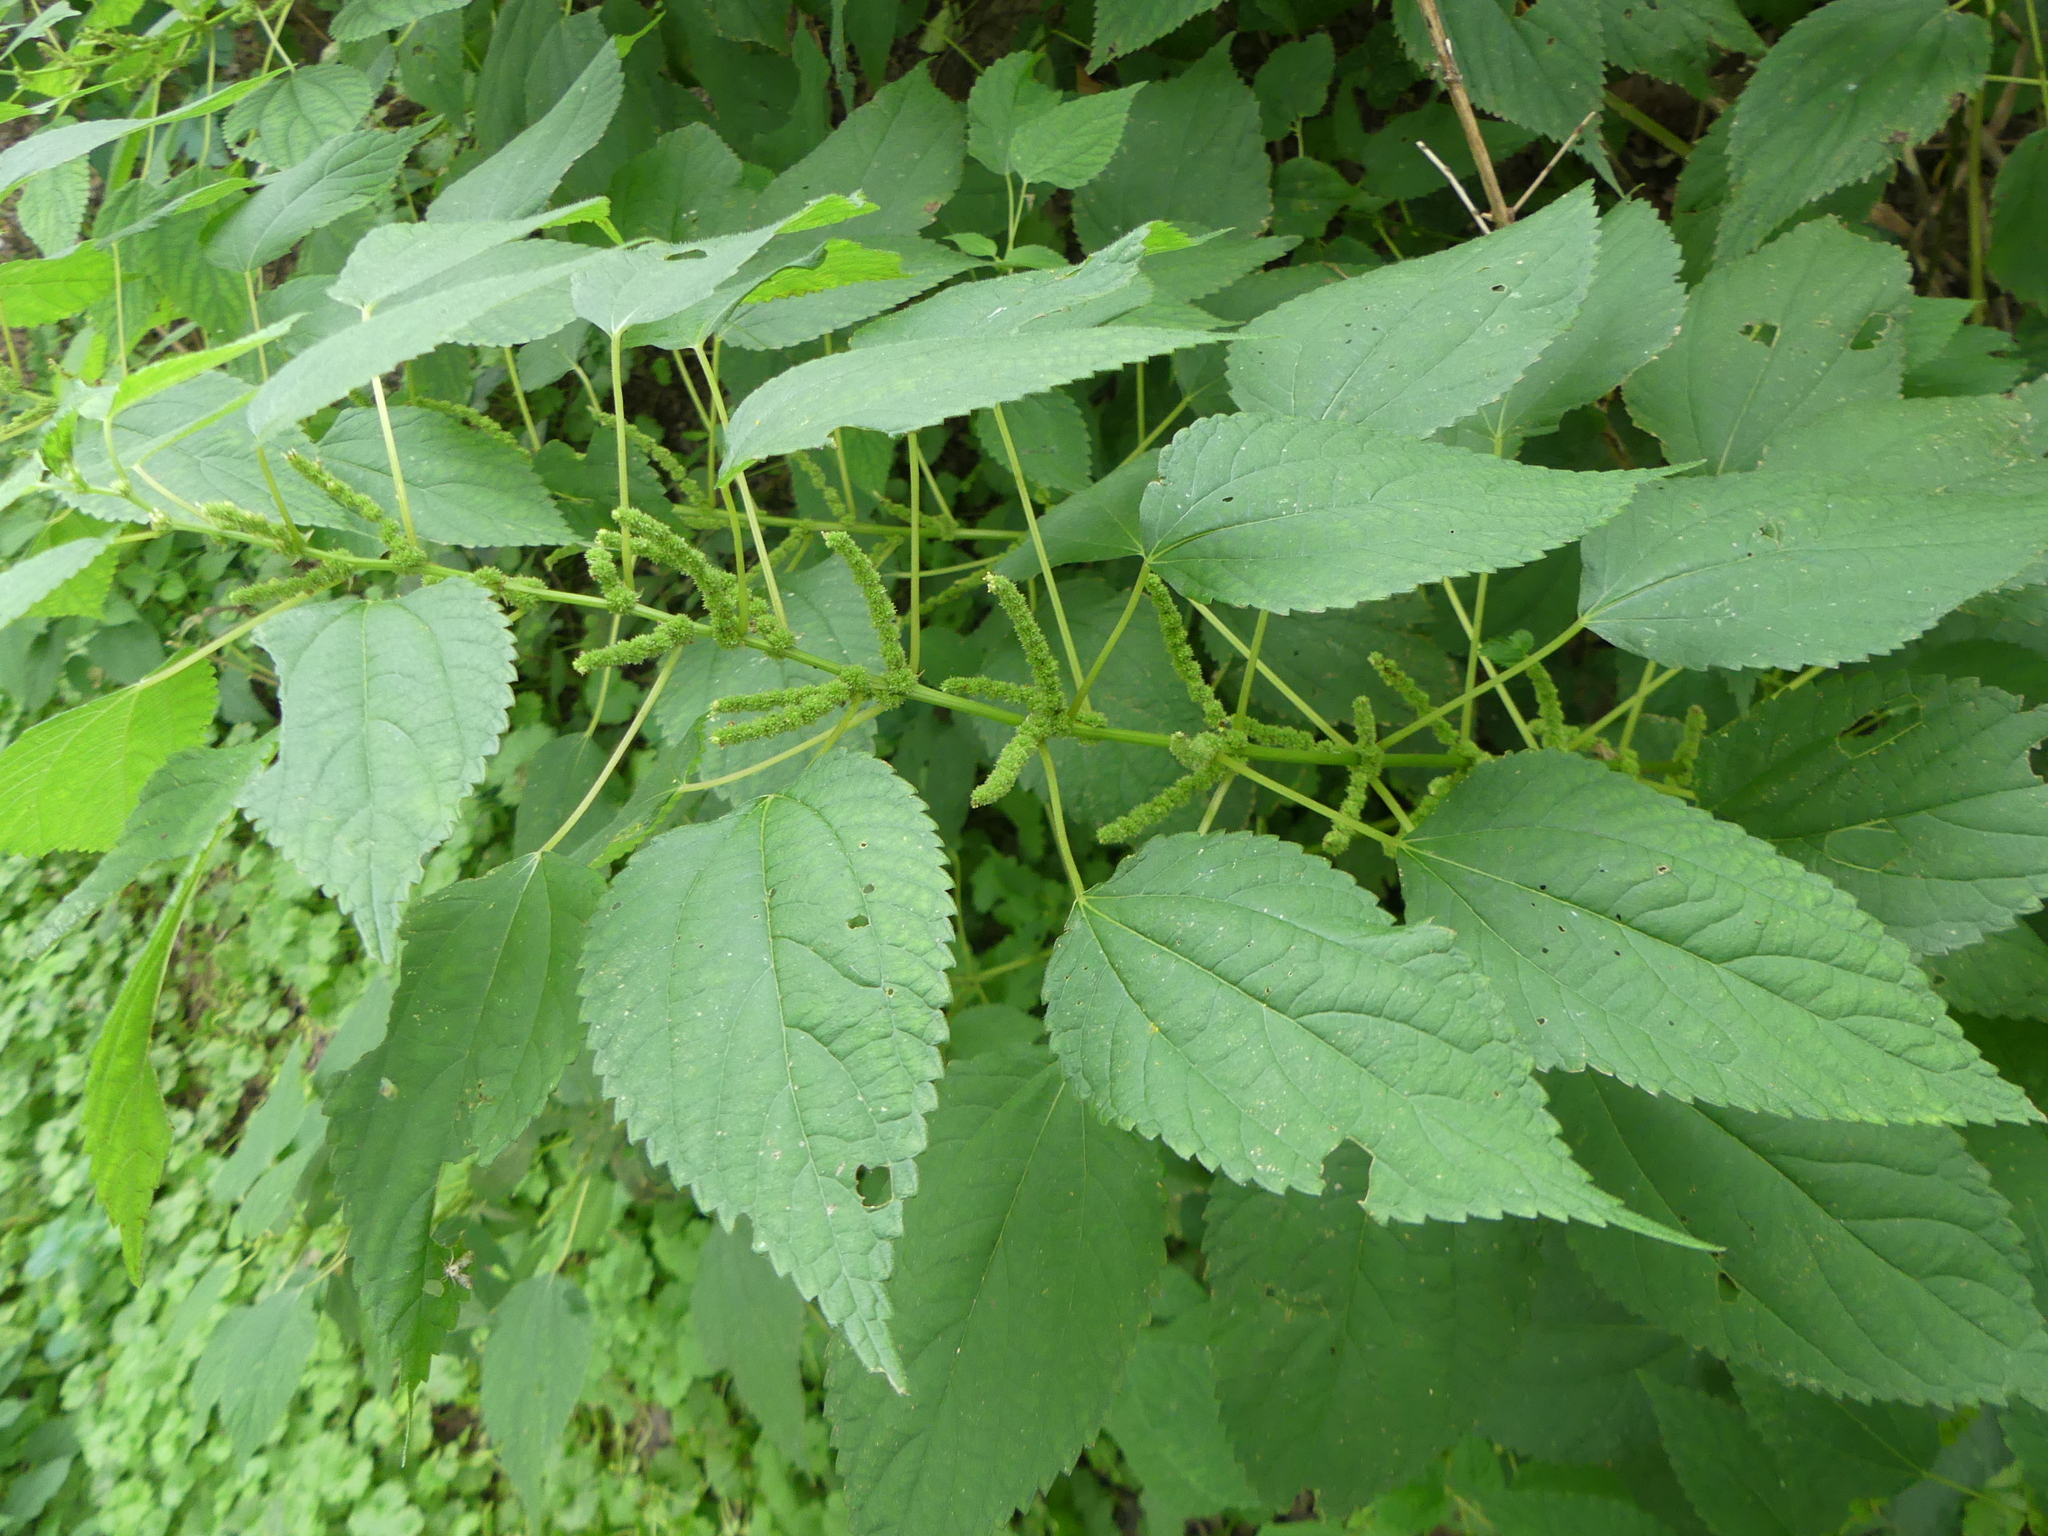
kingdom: Plantae
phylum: Tracheophyta
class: Magnoliopsida
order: Rosales
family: Urticaceae
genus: Boehmeria
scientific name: Boehmeria cylindrica
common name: Bog-hemp
